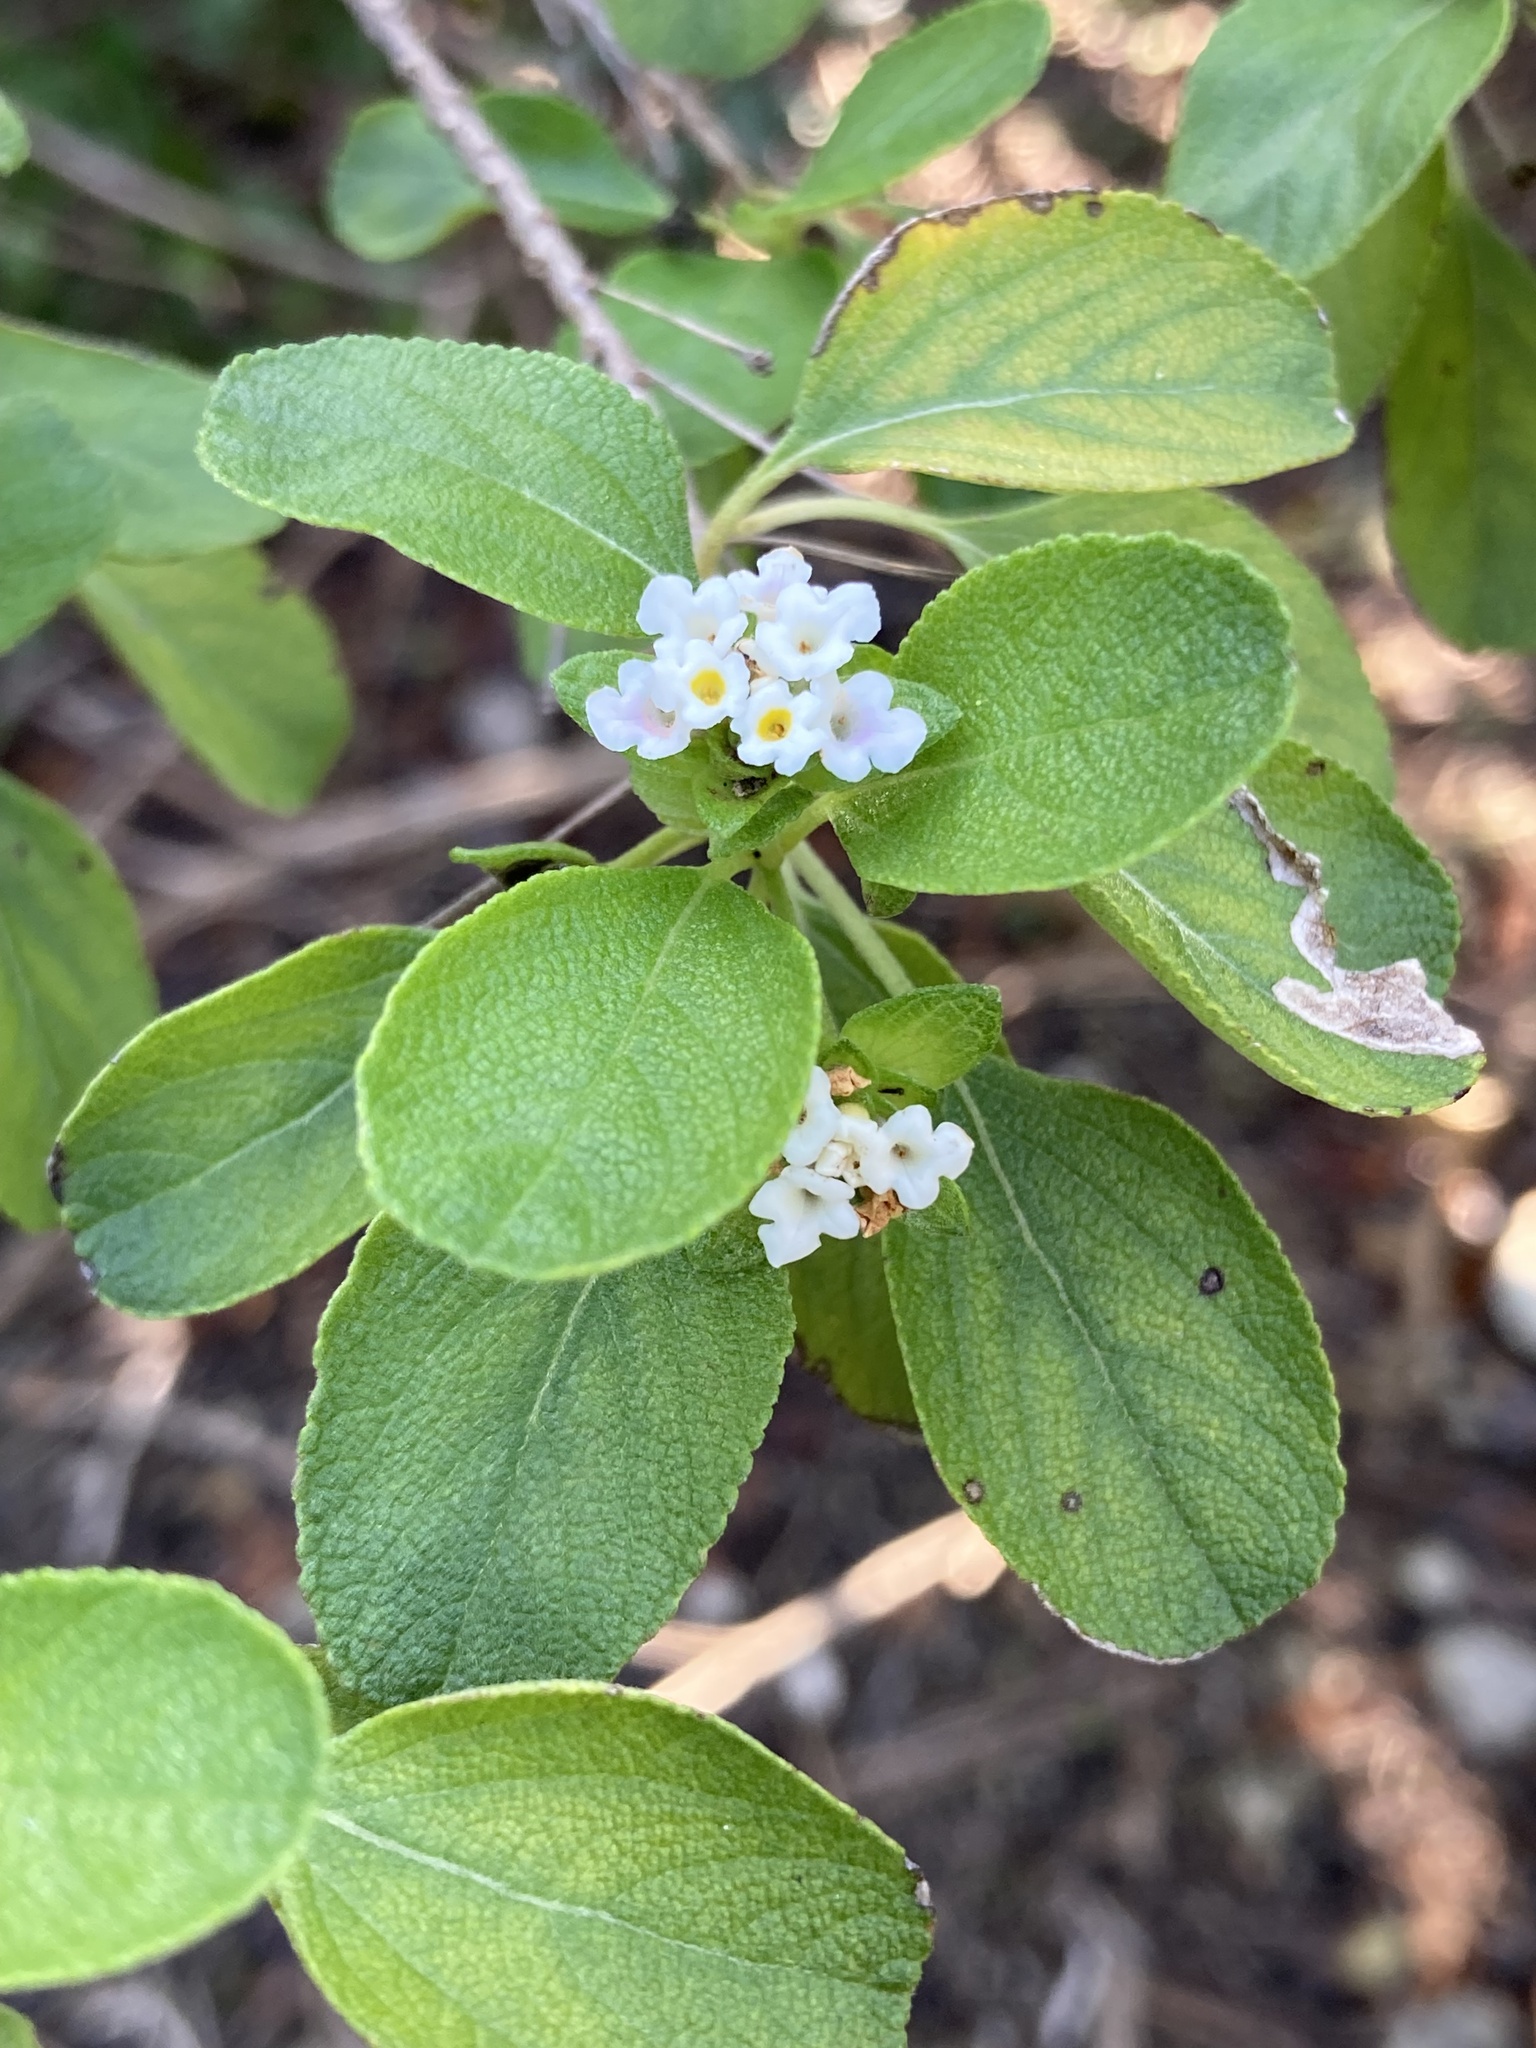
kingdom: Plantae
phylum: Tracheophyta
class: Magnoliopsida
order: Lamiales
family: Verbenaceae
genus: Lantana
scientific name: Lantana involucrata
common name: Black sage
